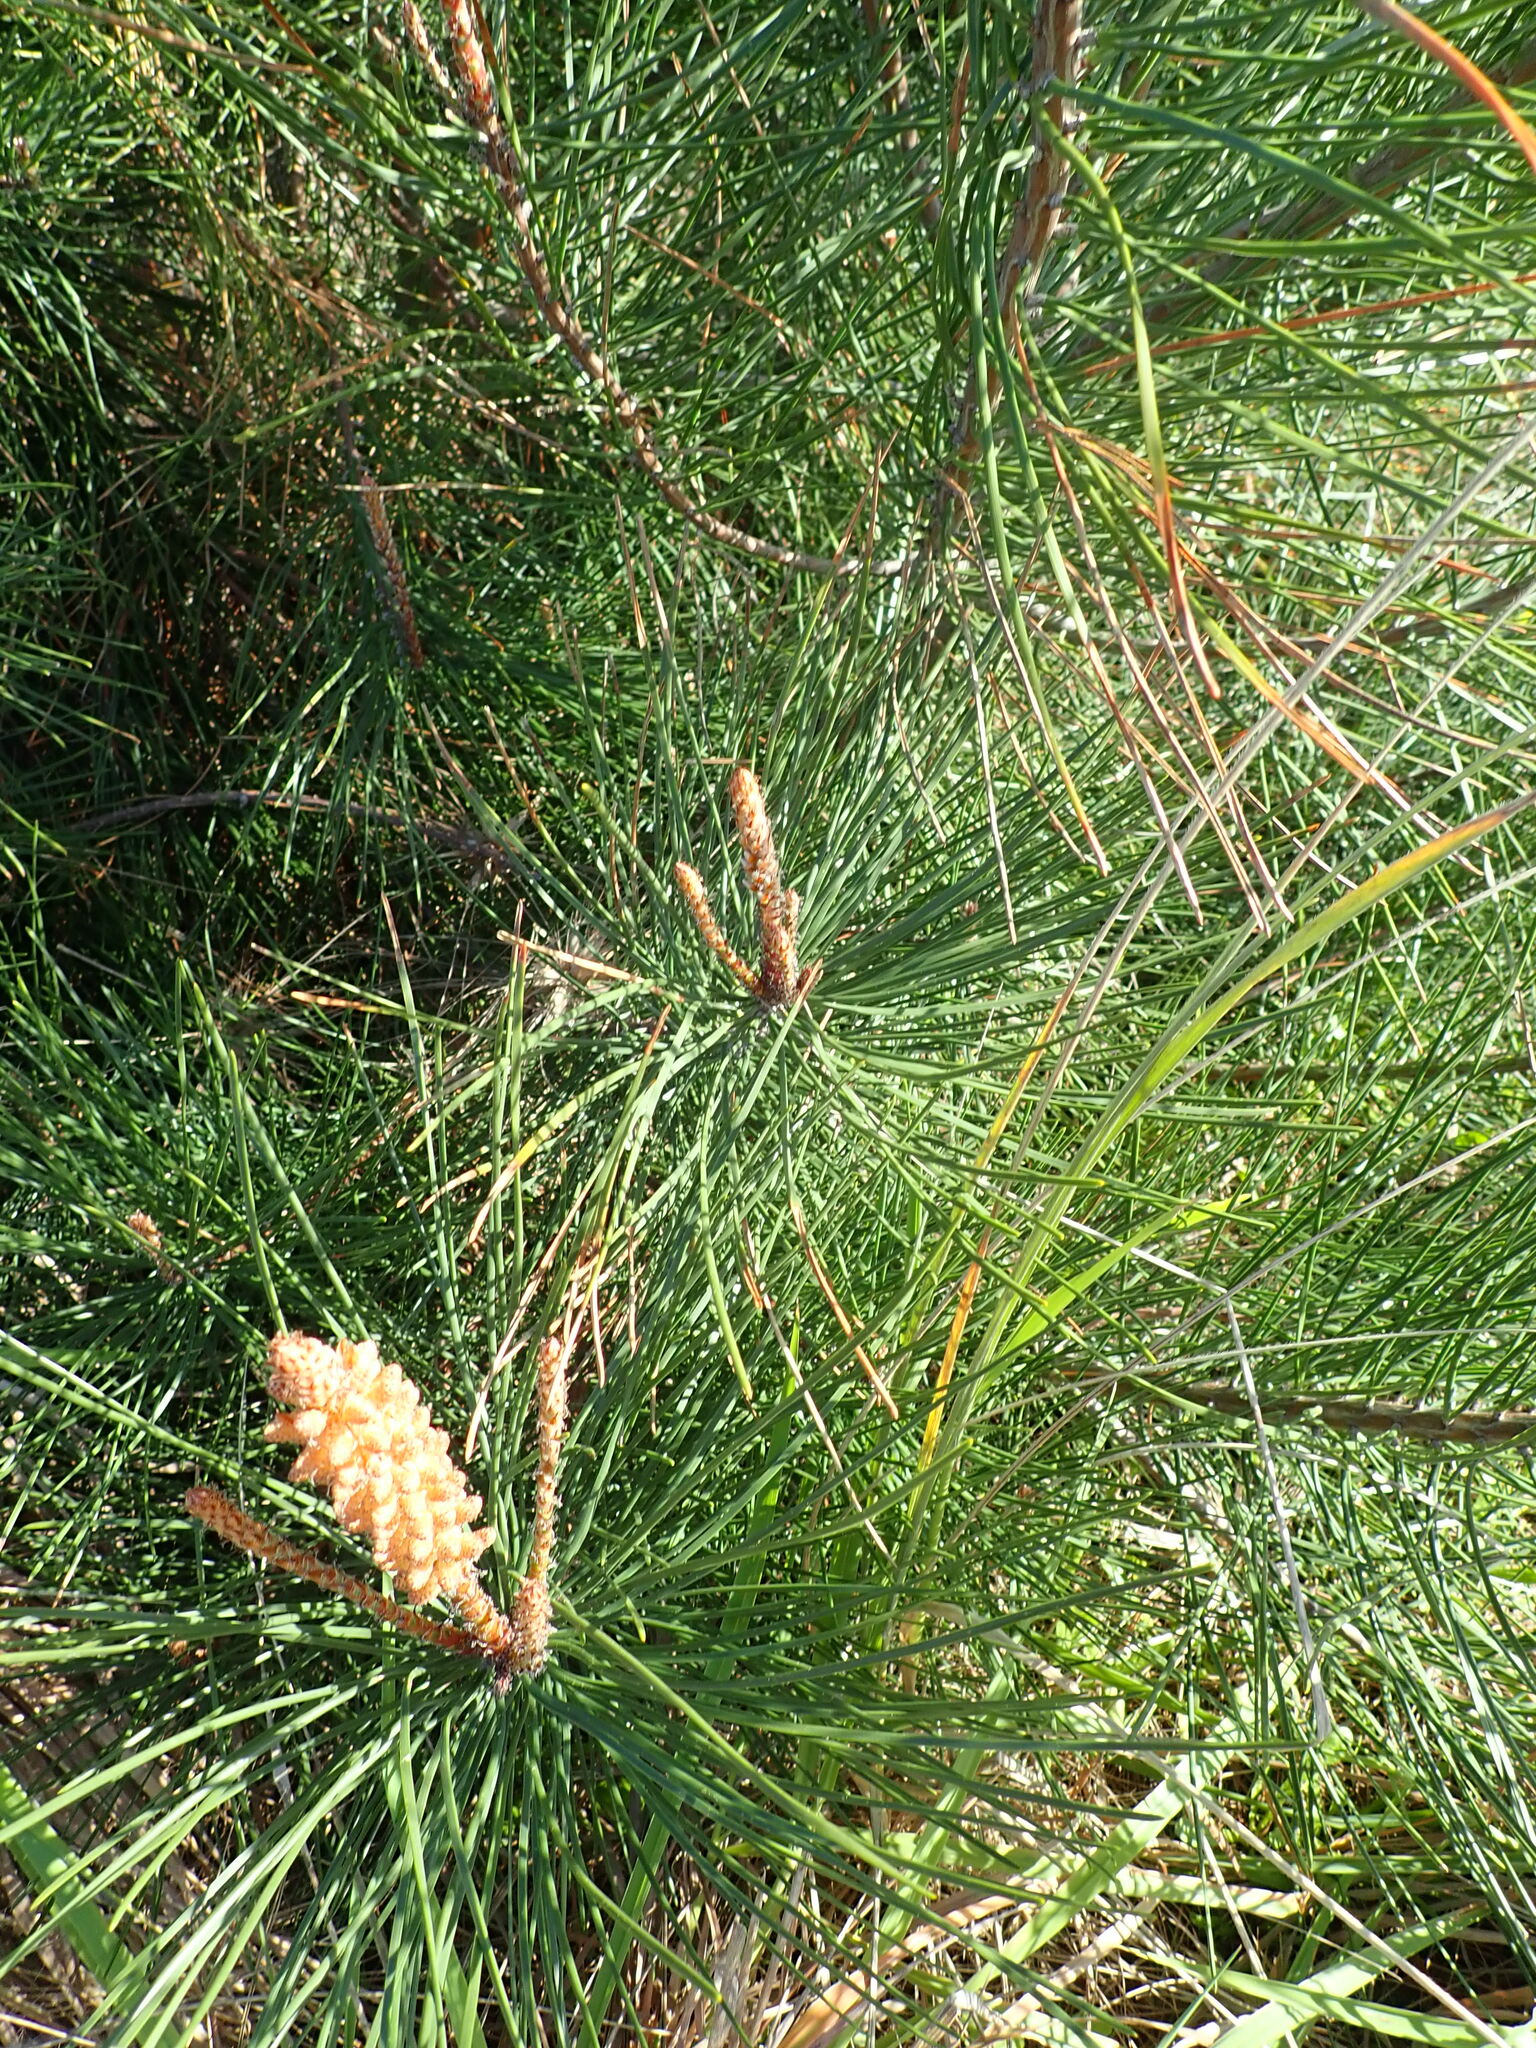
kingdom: Plantae
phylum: Tracheophyta
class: Pinopsida
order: Pinales
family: Pinaceae
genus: Pinus
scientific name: Pinus pinaster
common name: Maritime pine
